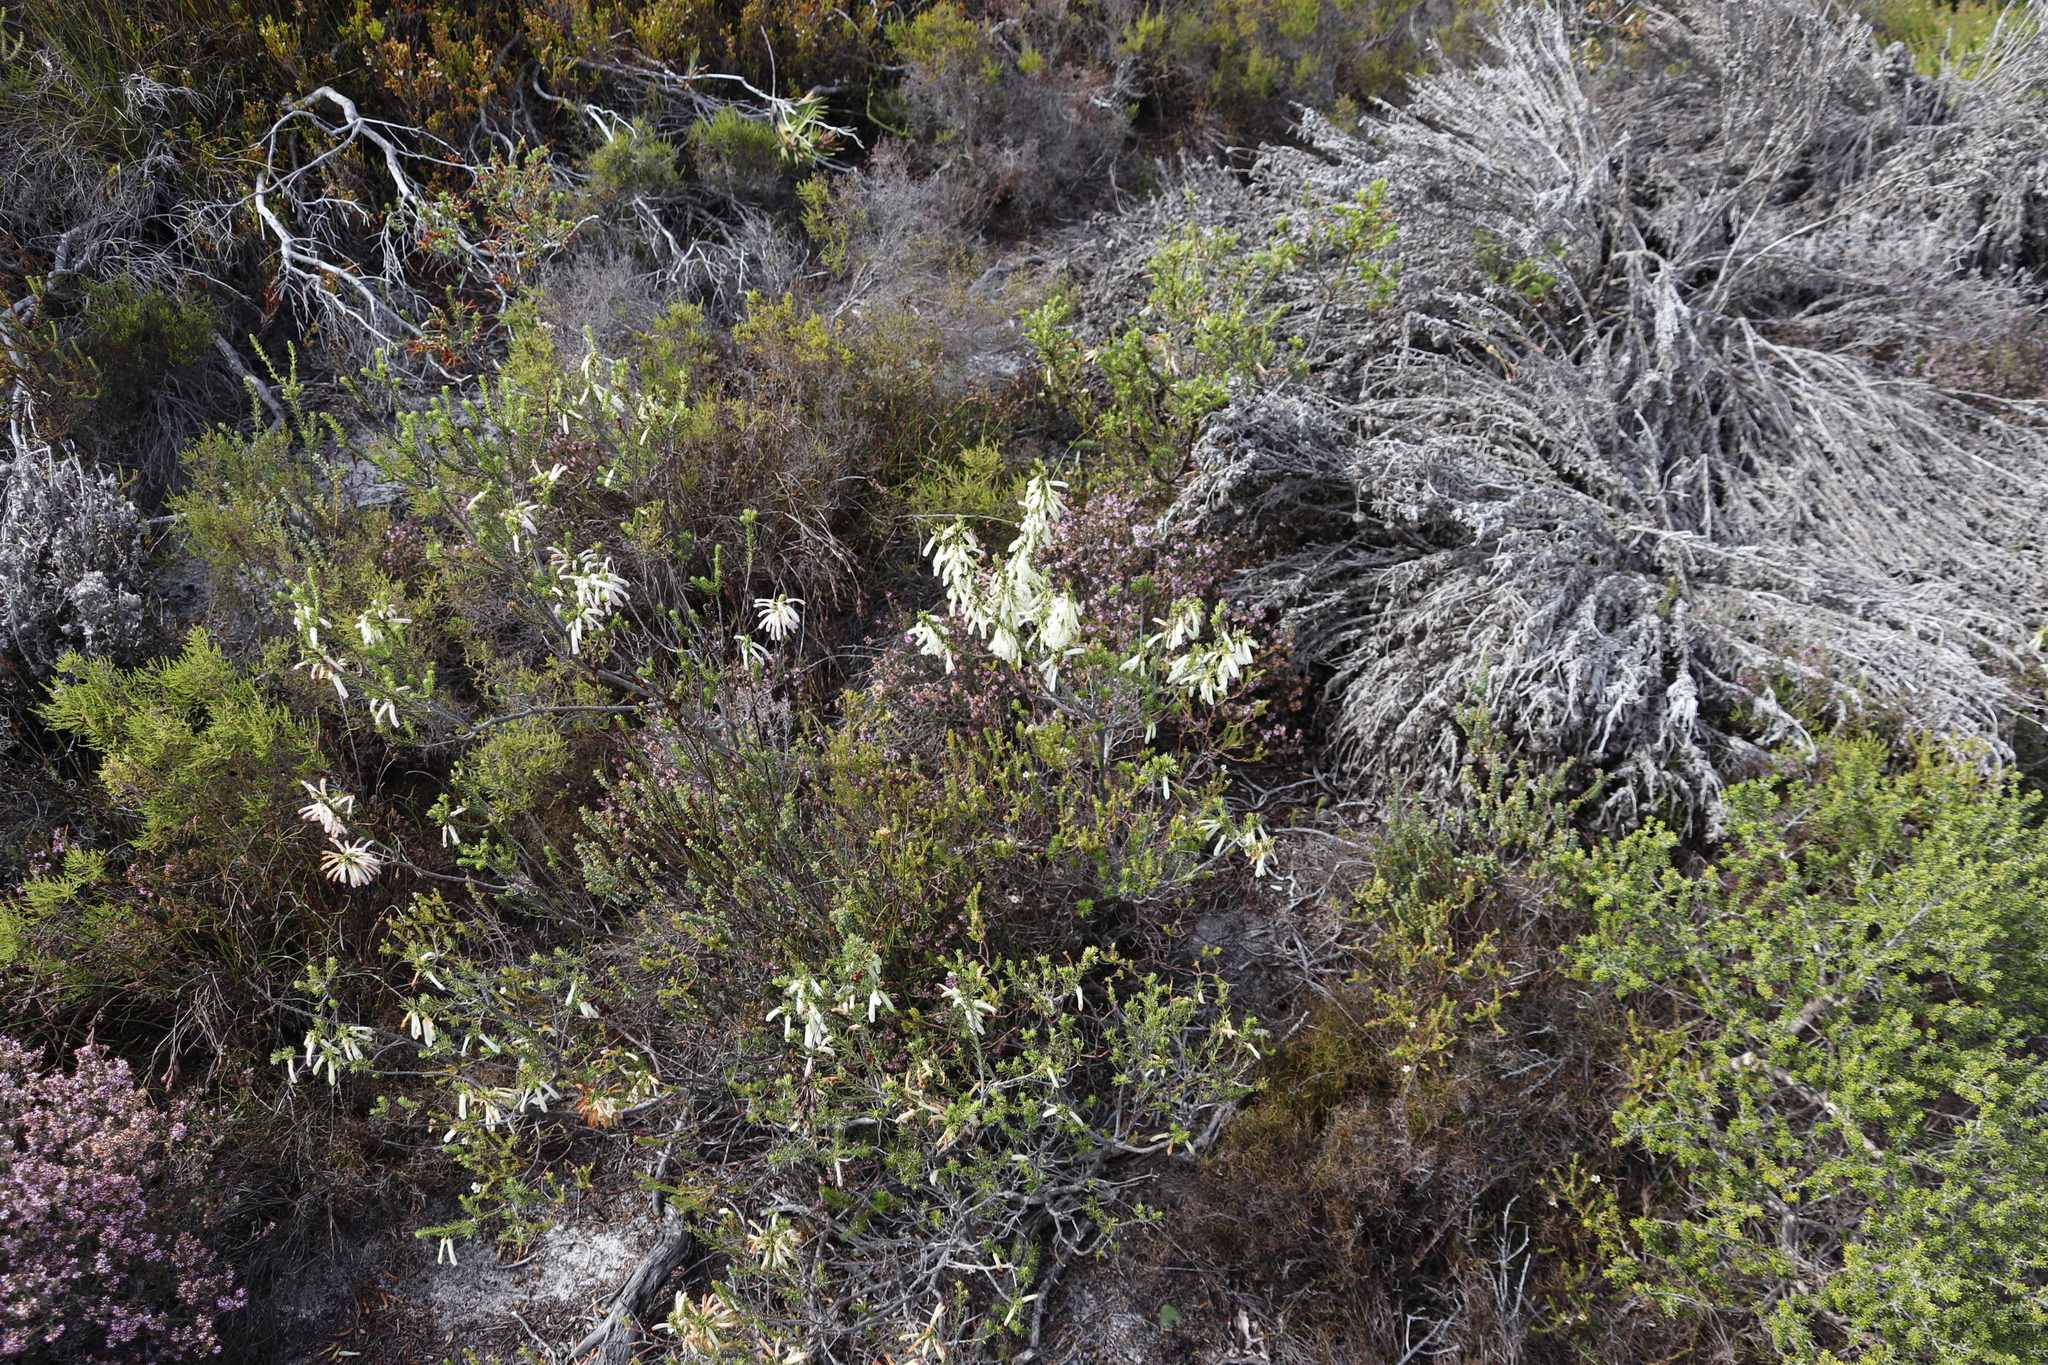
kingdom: Plantae
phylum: Tracheophyta
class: Magnoliopsida
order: Ericales
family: Ericaceae
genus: Erica
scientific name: Erica mammosa
